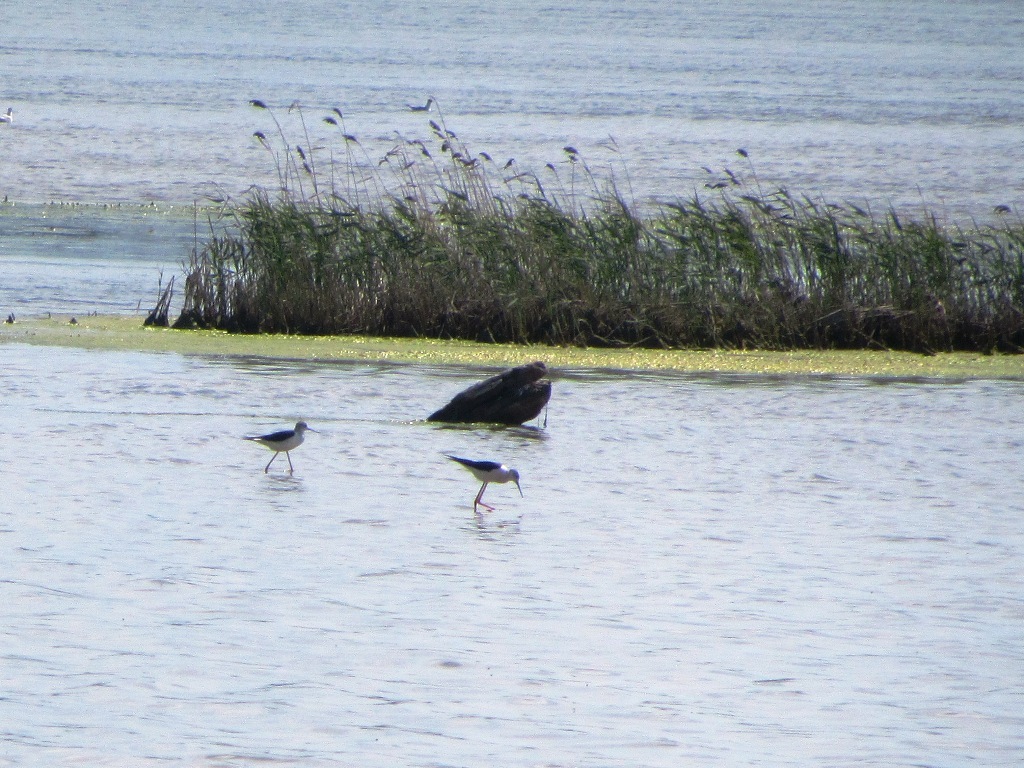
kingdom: Animalia
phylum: Chordata
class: Aves
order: Charadriiformes
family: Recurvirostridae
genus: Himantopus
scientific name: Himantopus himantopus
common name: Black-winged stilt
